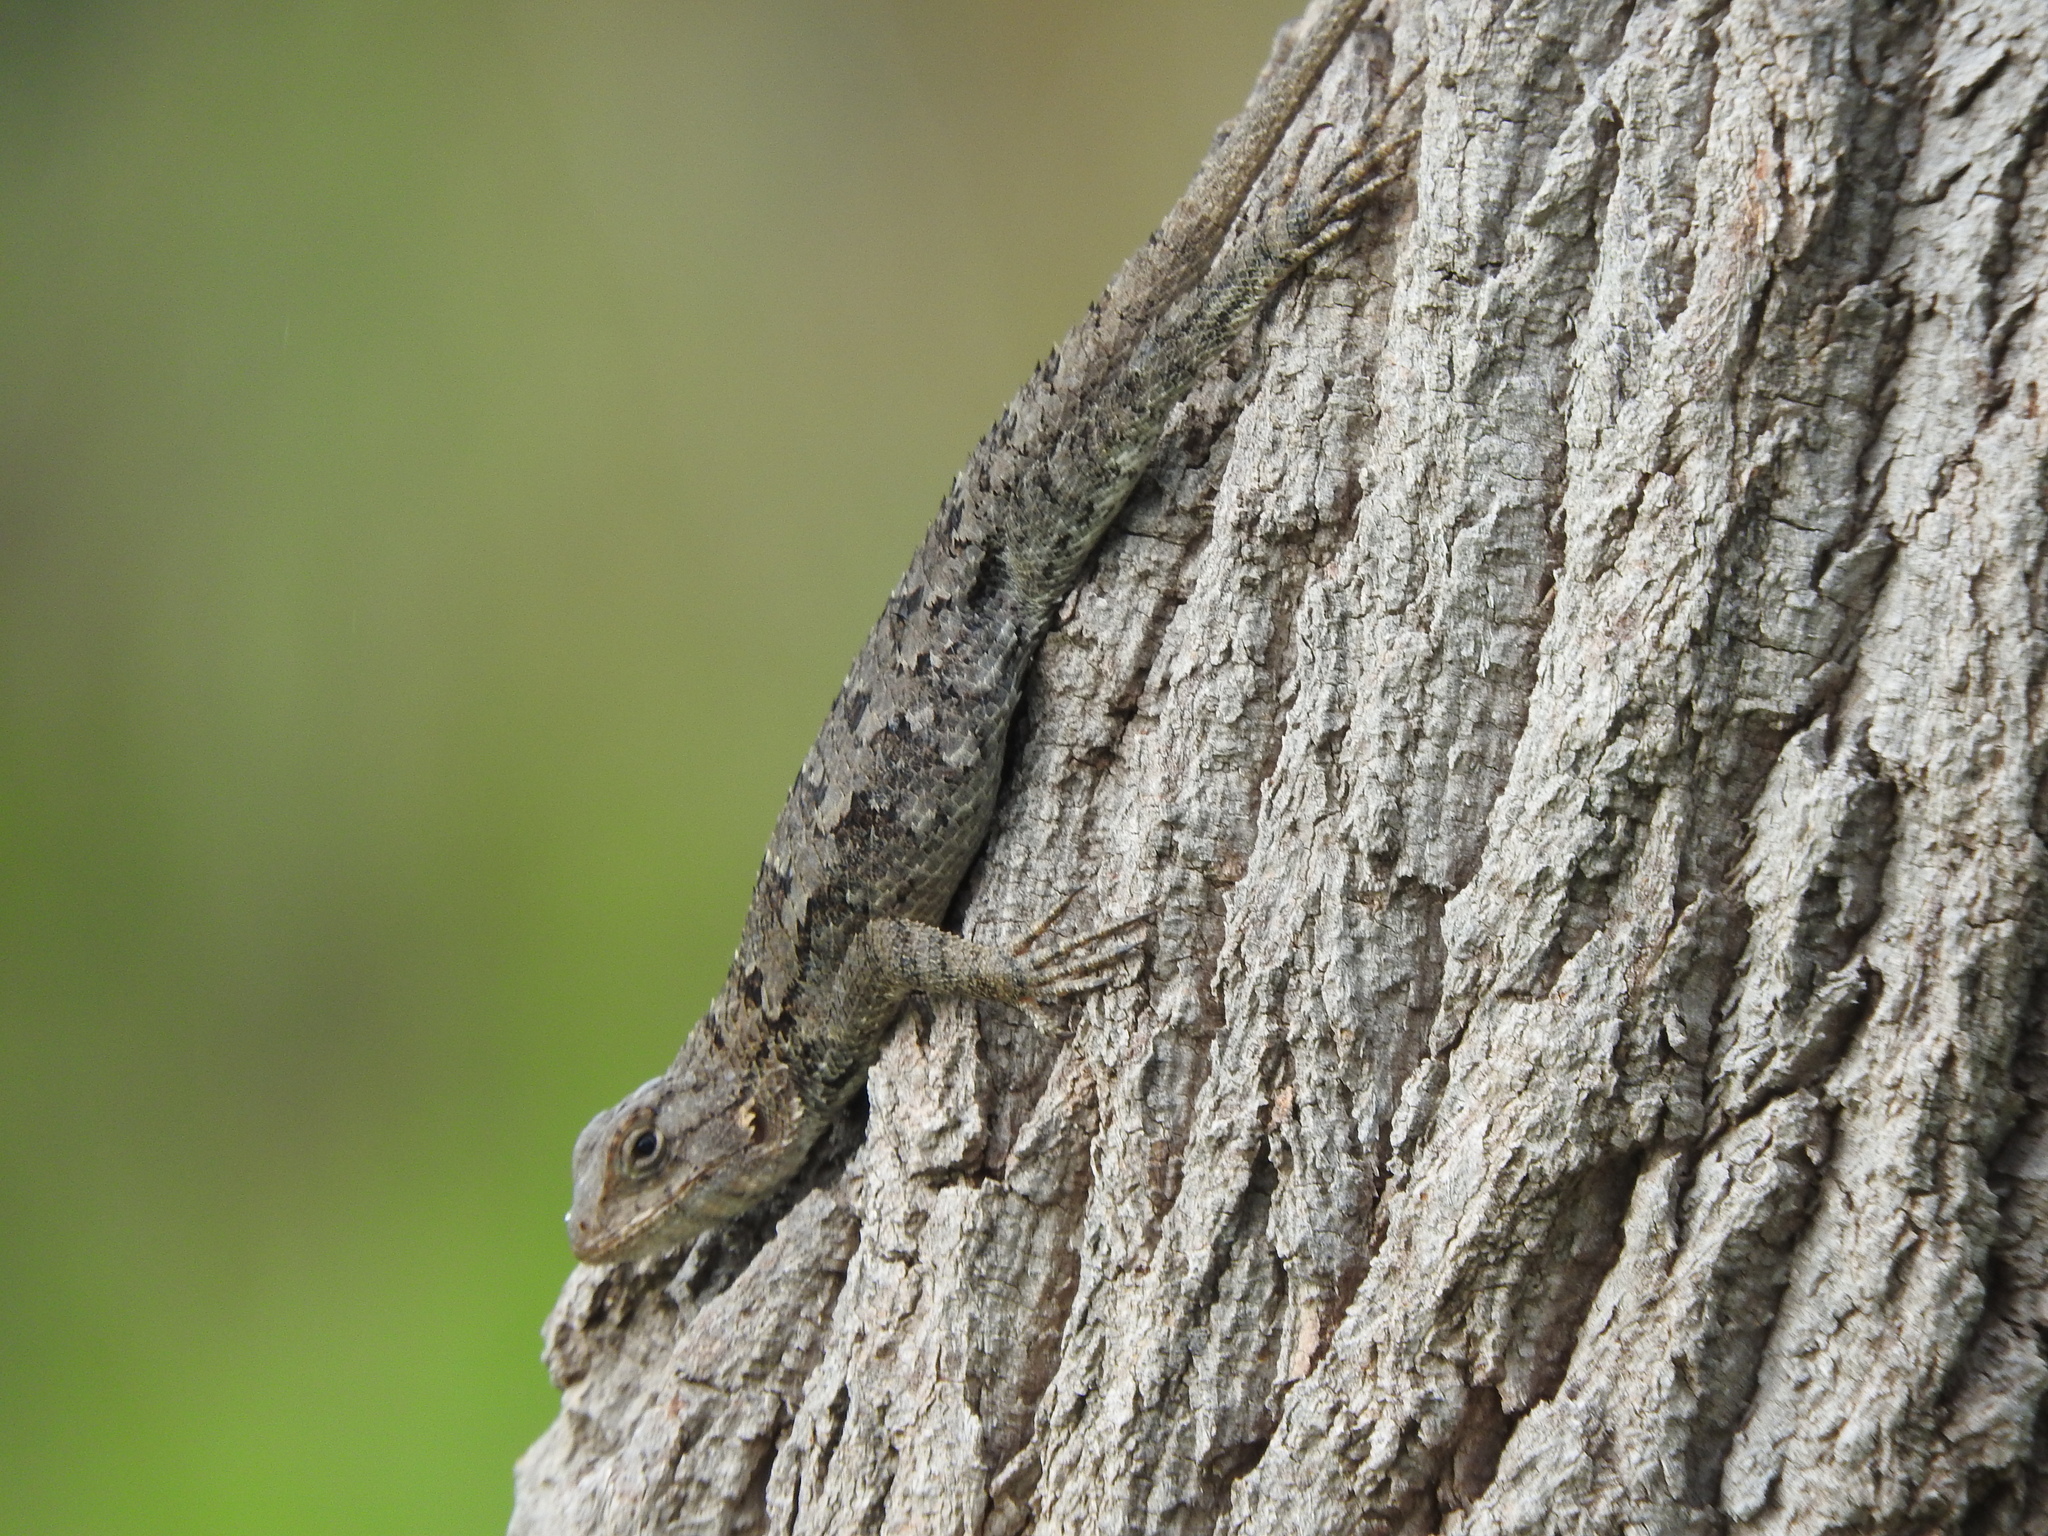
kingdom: Animalia
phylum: Chordata
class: Squamata
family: Phrynosomatidae
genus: Sceloporus
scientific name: Sceloporus spinosus
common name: Blue-spotted spiny lizard [caeruleopunctatus]
